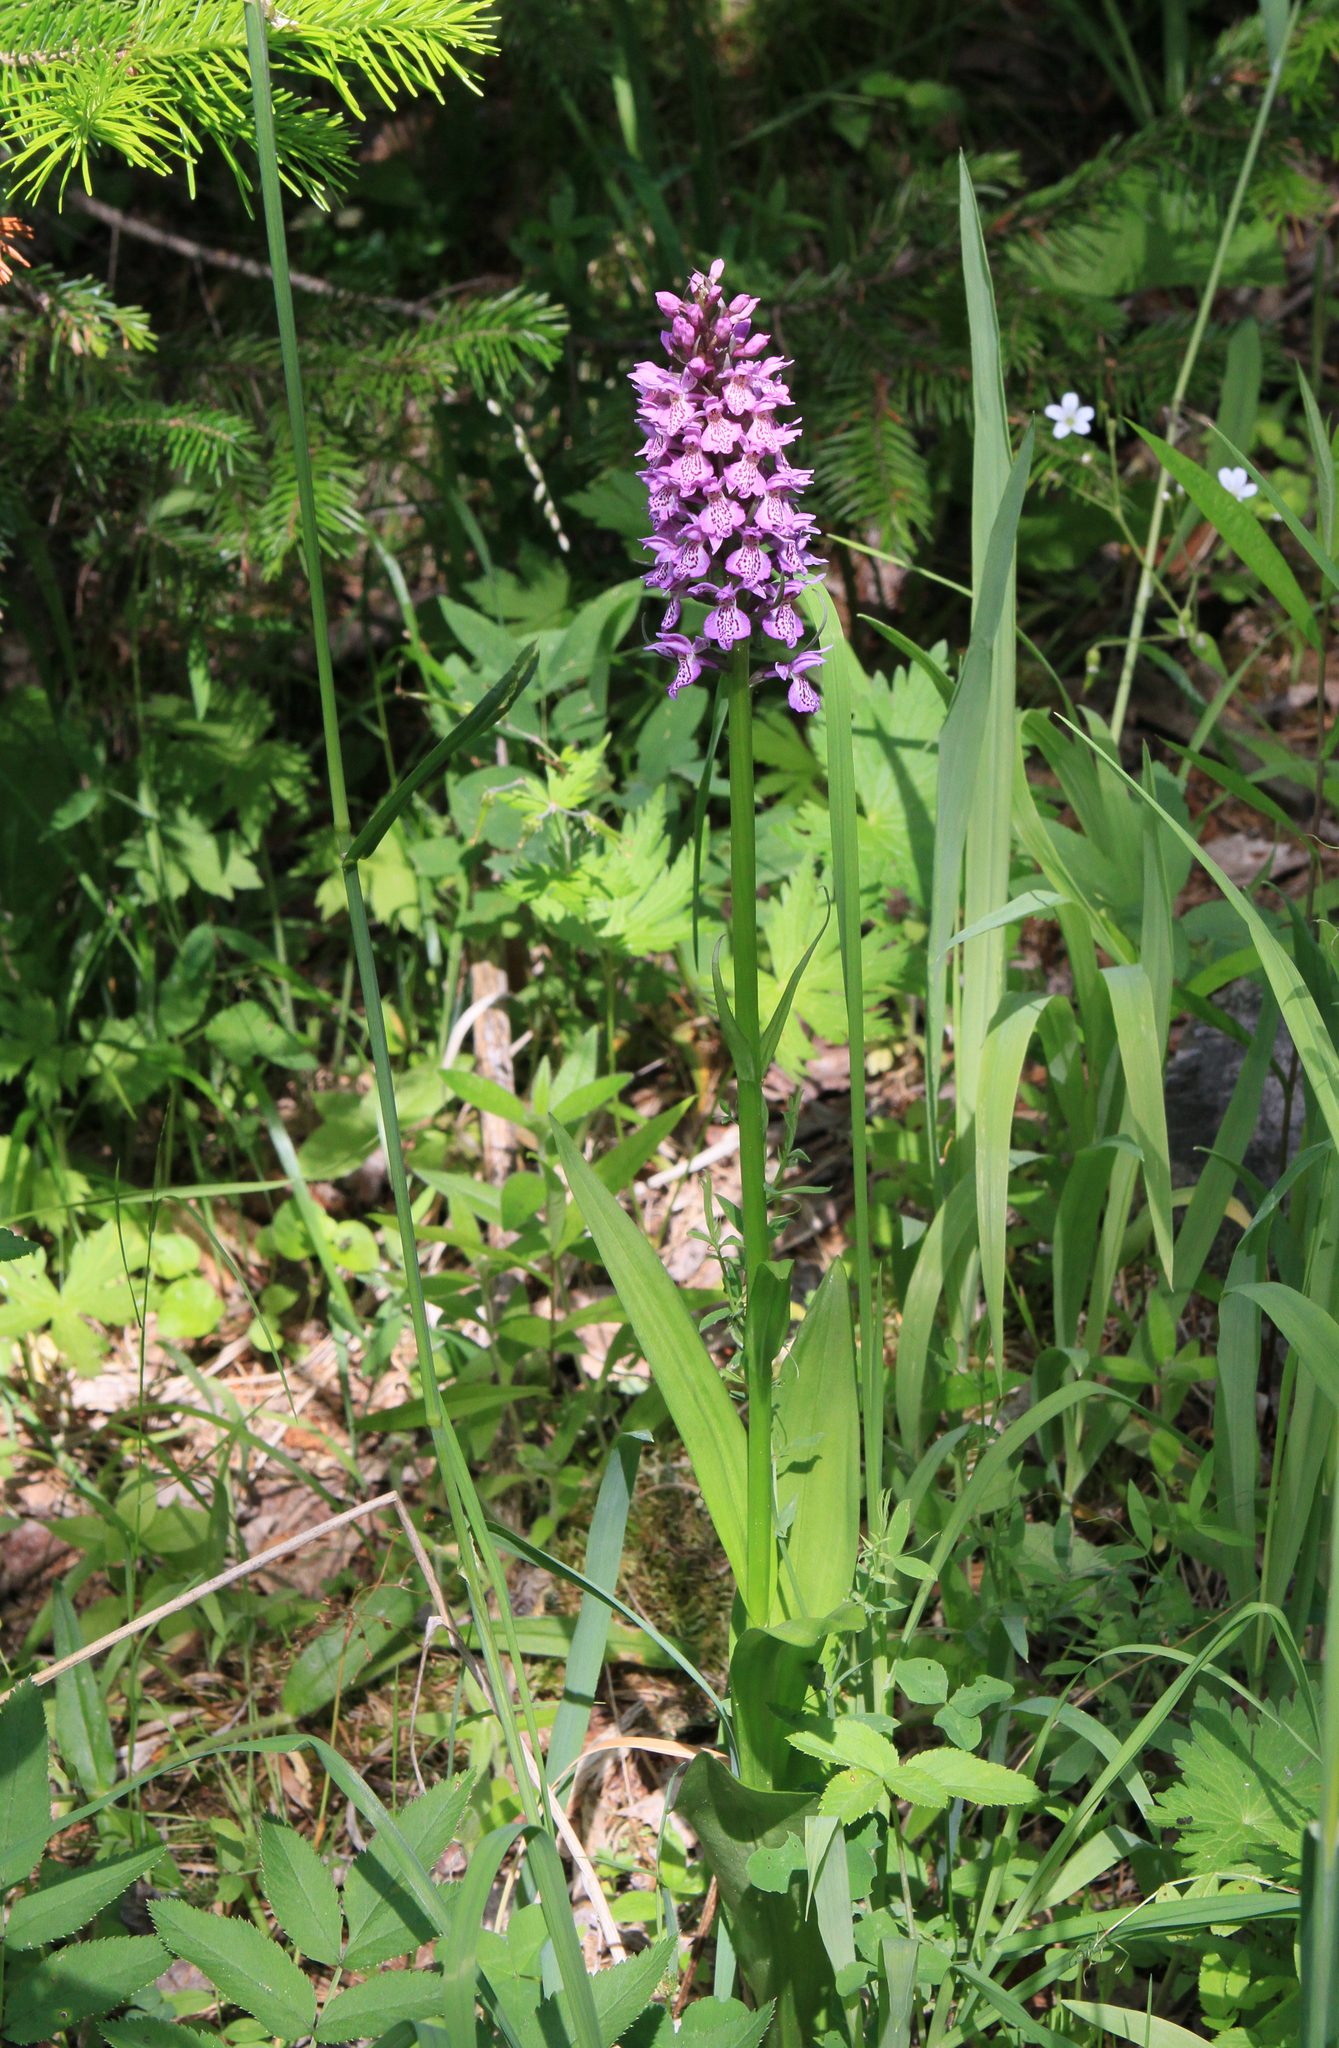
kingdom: Plantae
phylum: Tracheophyta
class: Liliopsida
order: Asparagales
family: Orchidaceae
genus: Dactylorhiza
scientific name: Dactylorhiza sibirica
